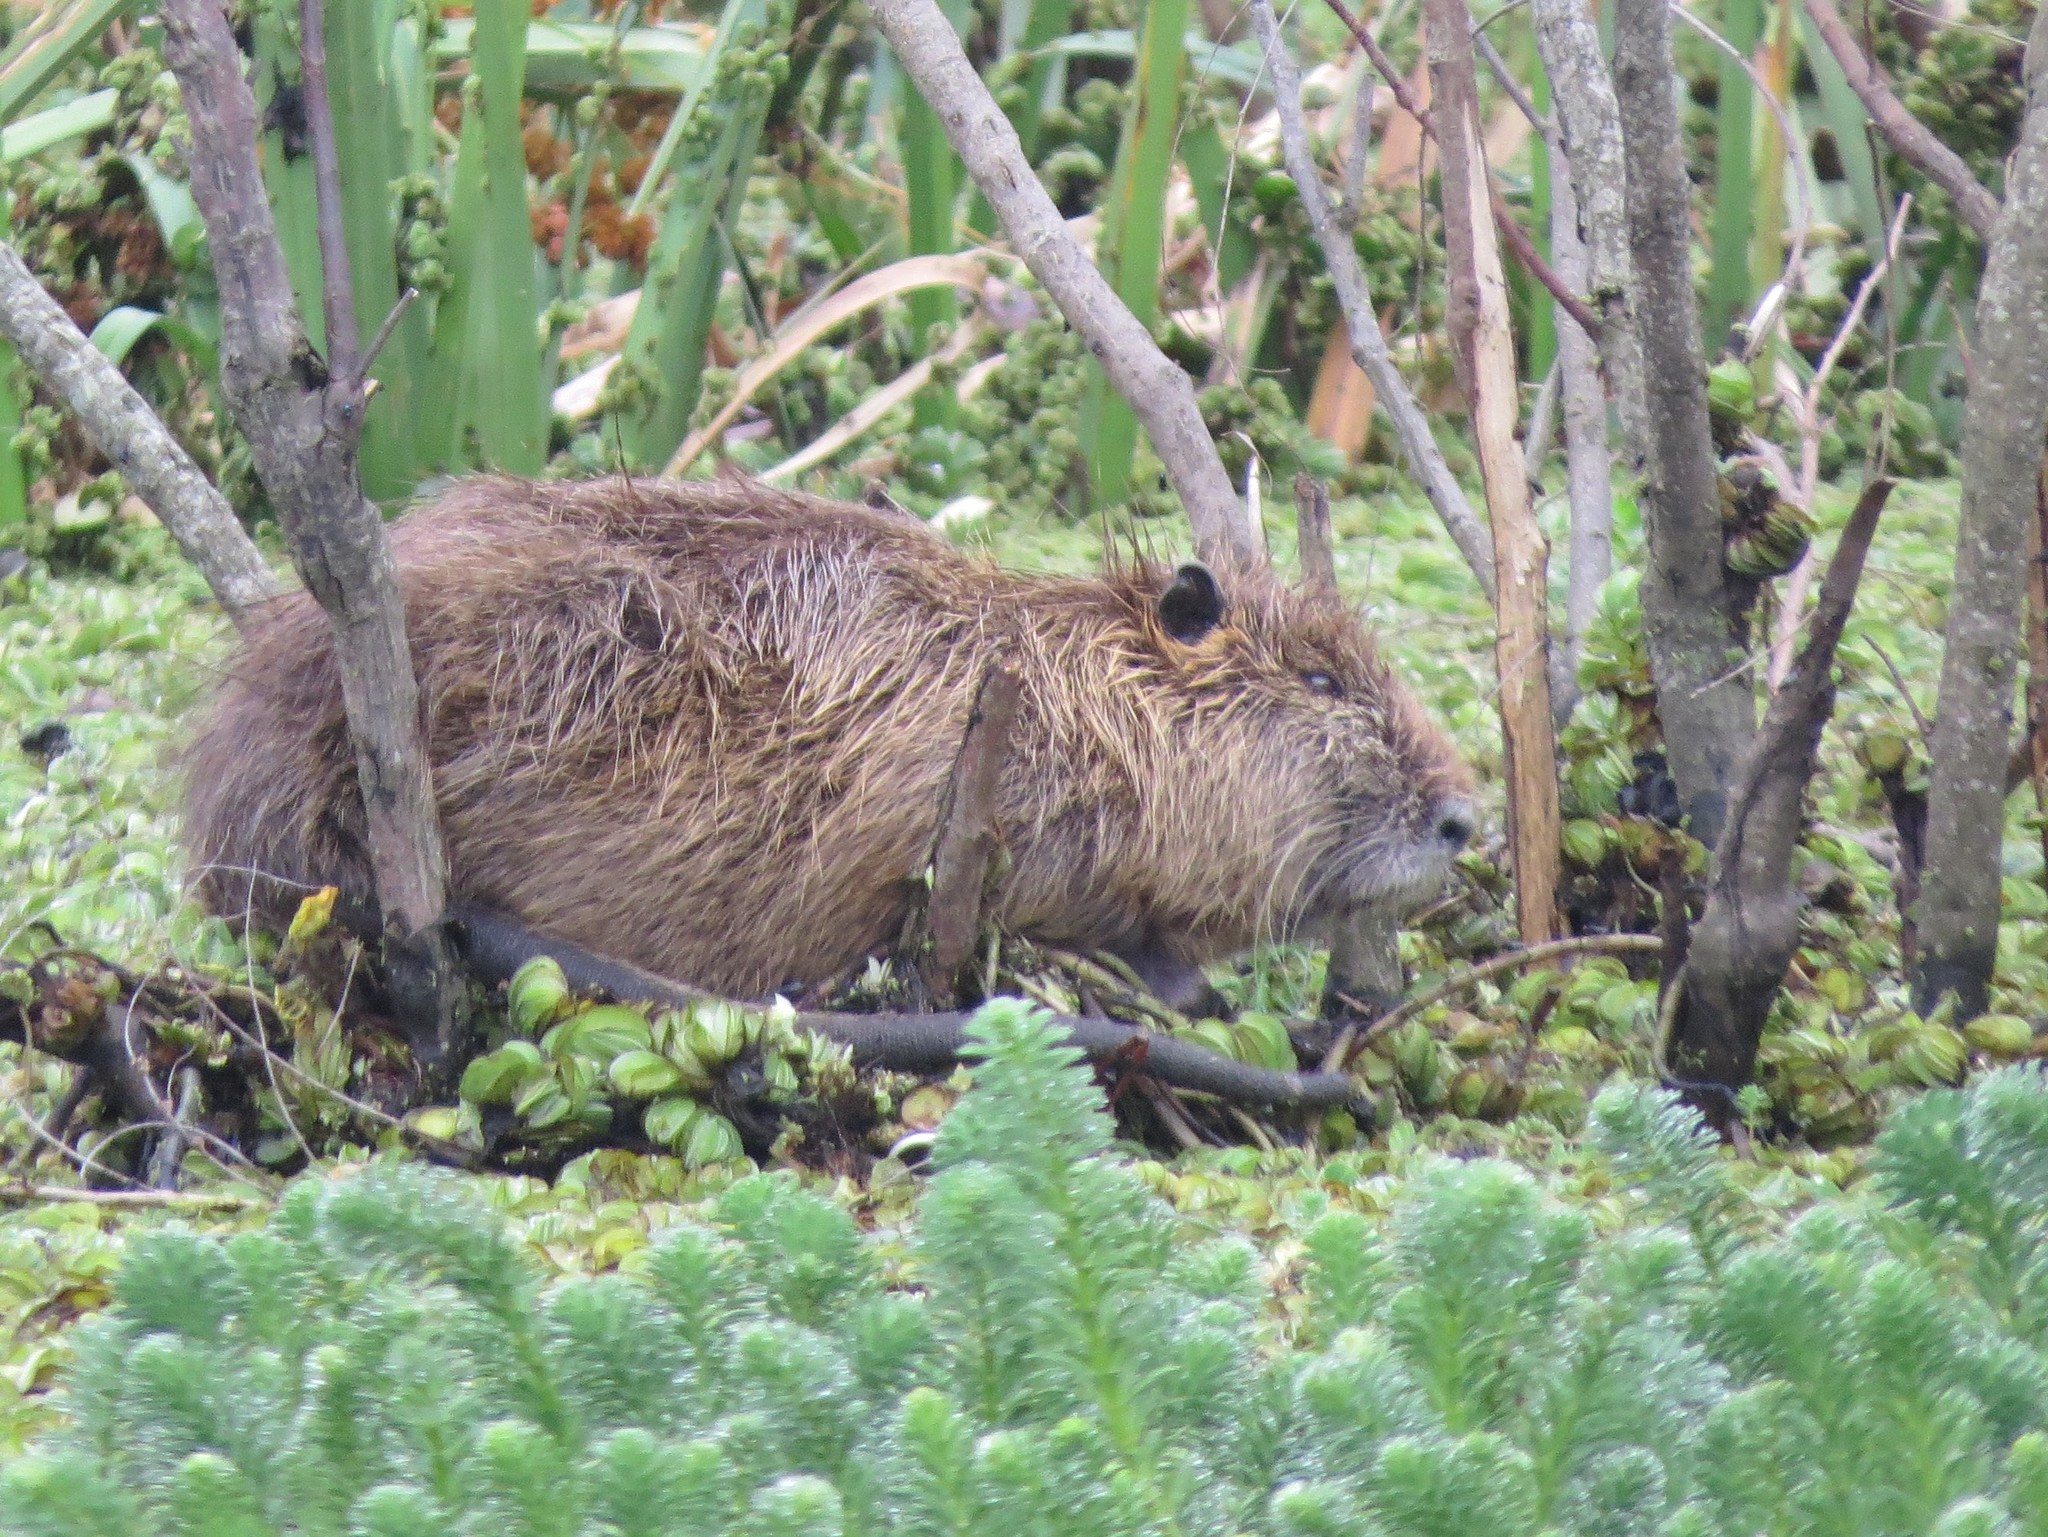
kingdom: Animalia
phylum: Chordata
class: Mammalia
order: Rodentia
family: Myocastoridae
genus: Myocastor
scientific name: Myocastor coypus
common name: Coypu
